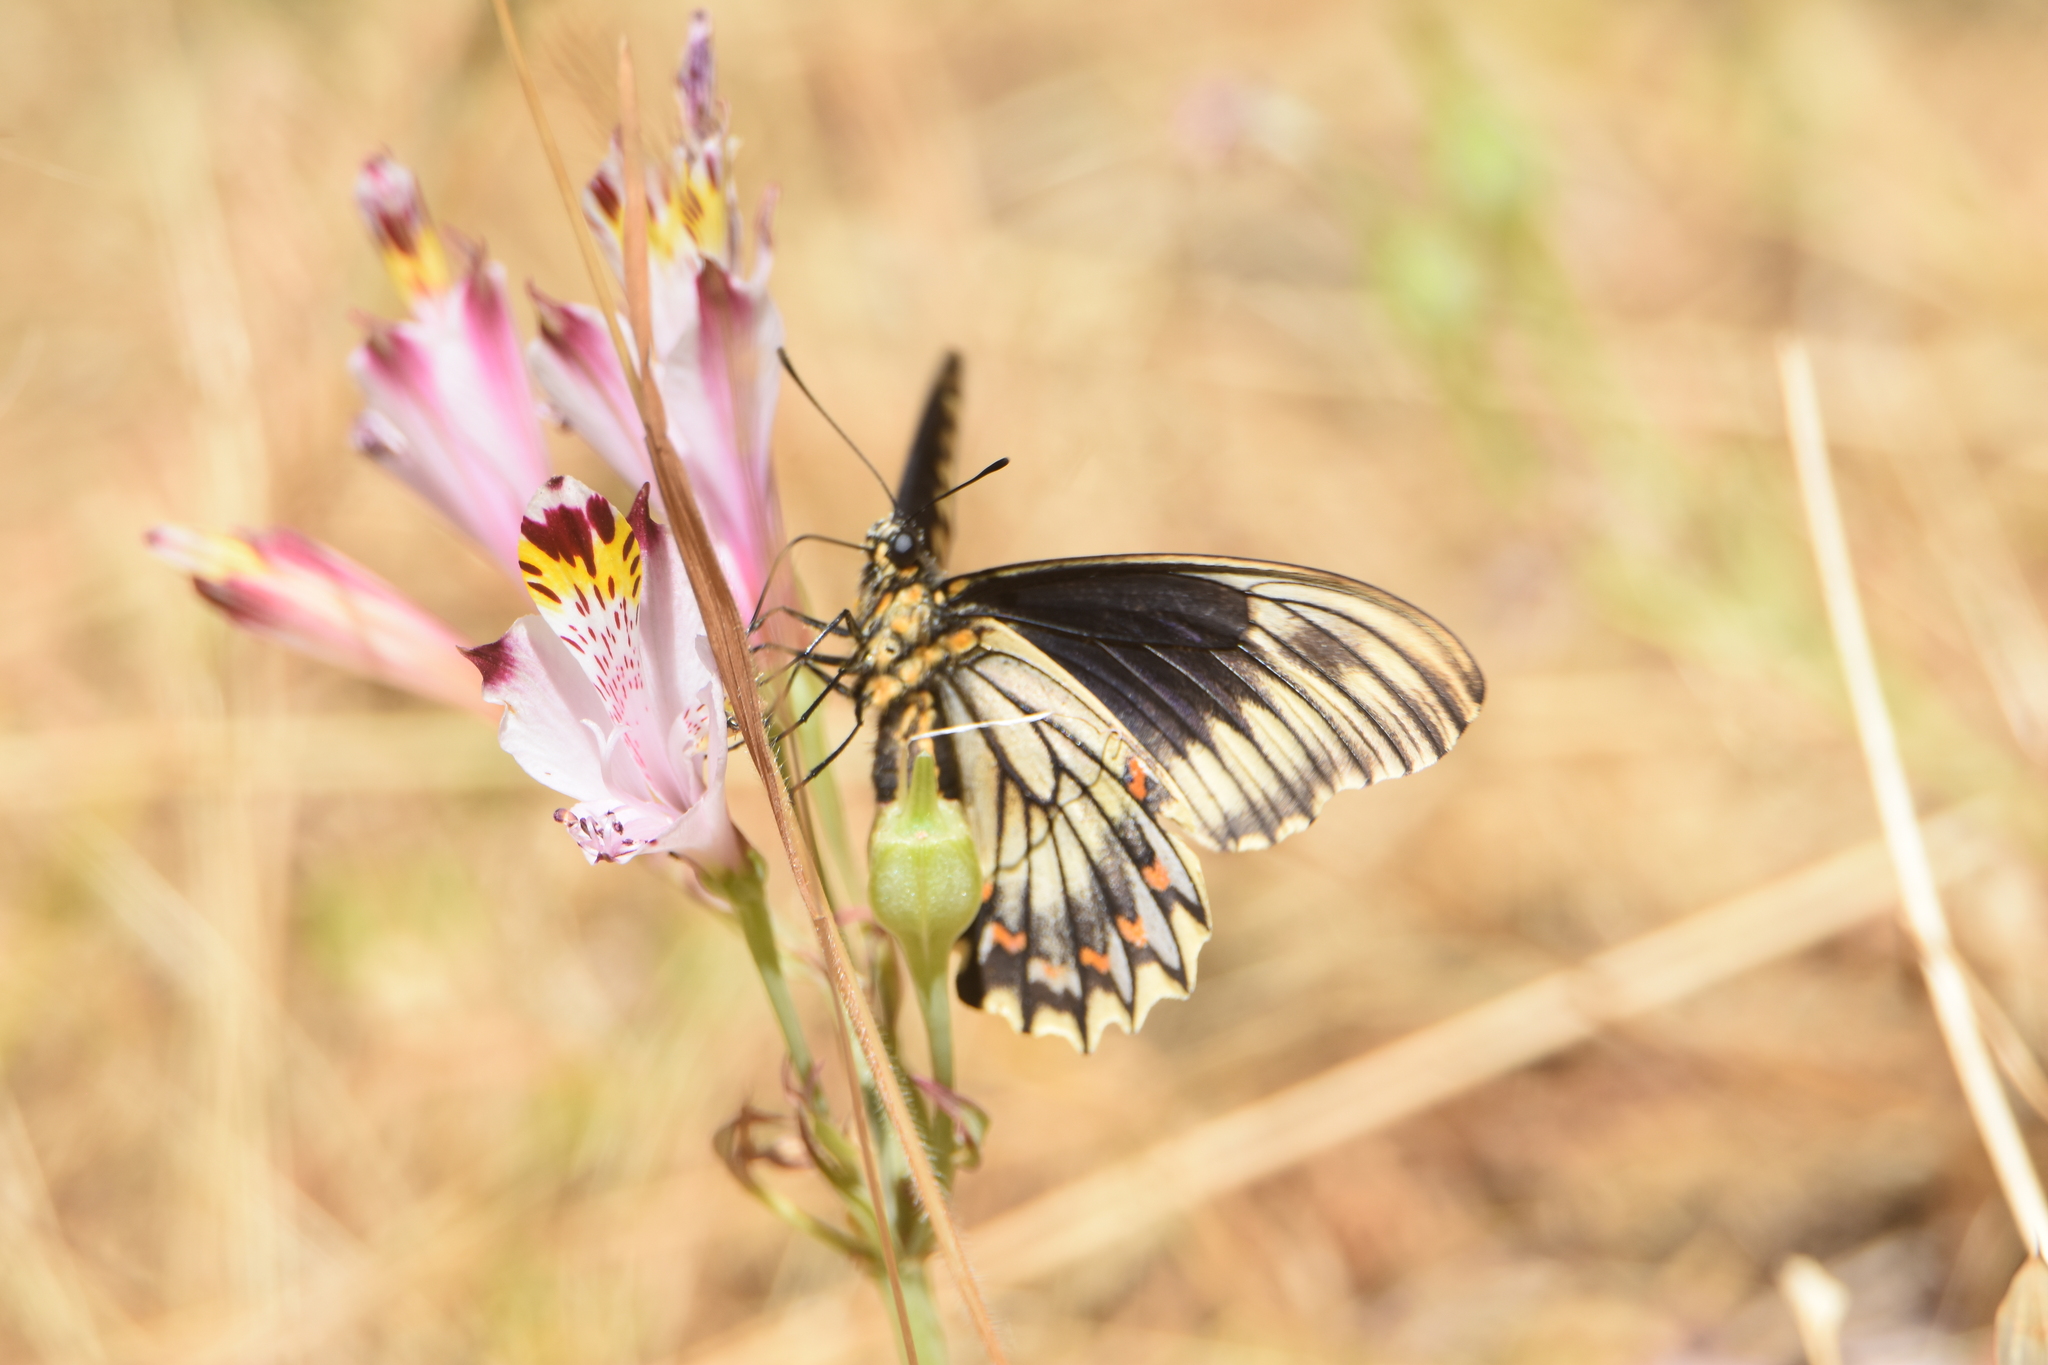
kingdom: Animalia
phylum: Arthropoda
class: Insecta
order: Lepidoptera
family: Papilionidae
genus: Battus
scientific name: Battus polydamas
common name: Polydamas swallowtail
